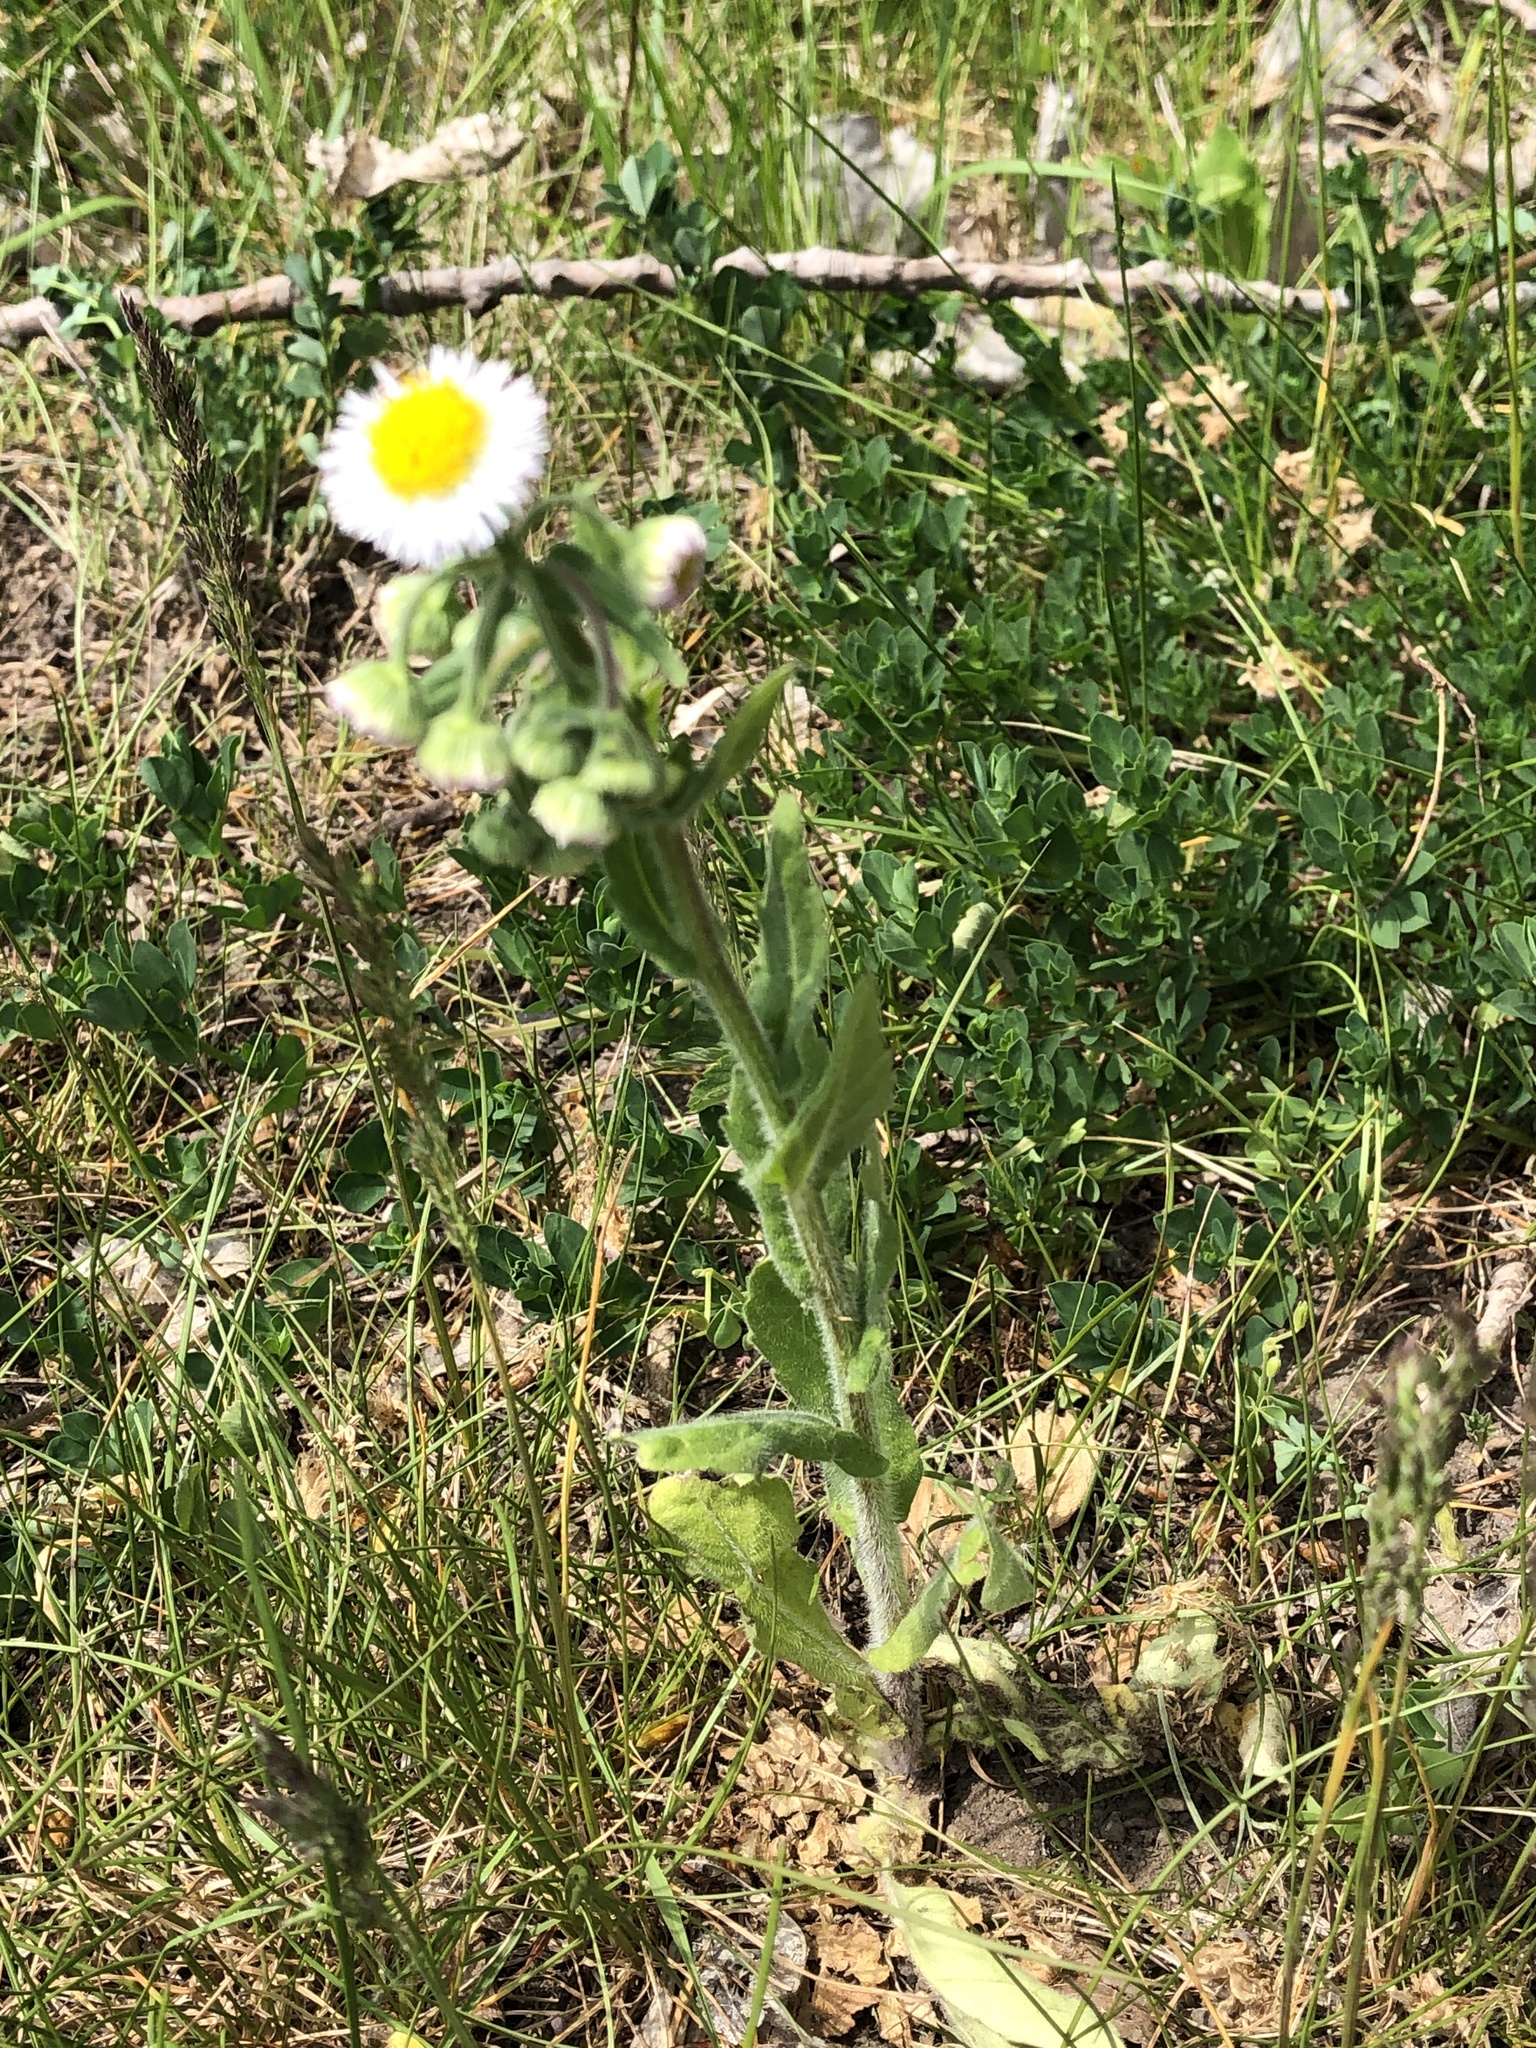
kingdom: Plantae
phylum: Tracheophyta
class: Magnoliopsida
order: Asterales
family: Asteraceae
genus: Erigeron
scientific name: Erigeron philadelphicus
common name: Robin's-plantain
